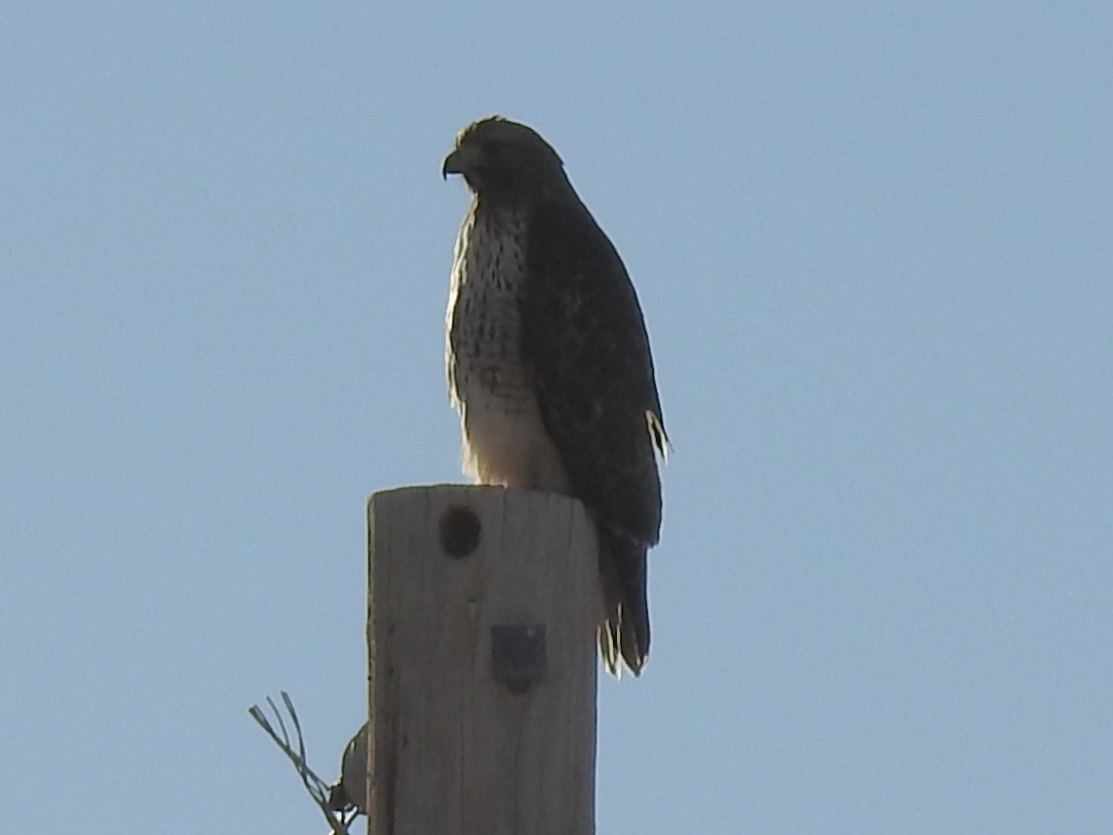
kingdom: Animalia
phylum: Chordata
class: Aves
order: Accipitriformes
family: Accipitridae
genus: Buteo
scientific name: Buteo jamaicensis
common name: Red-tailed hawk
